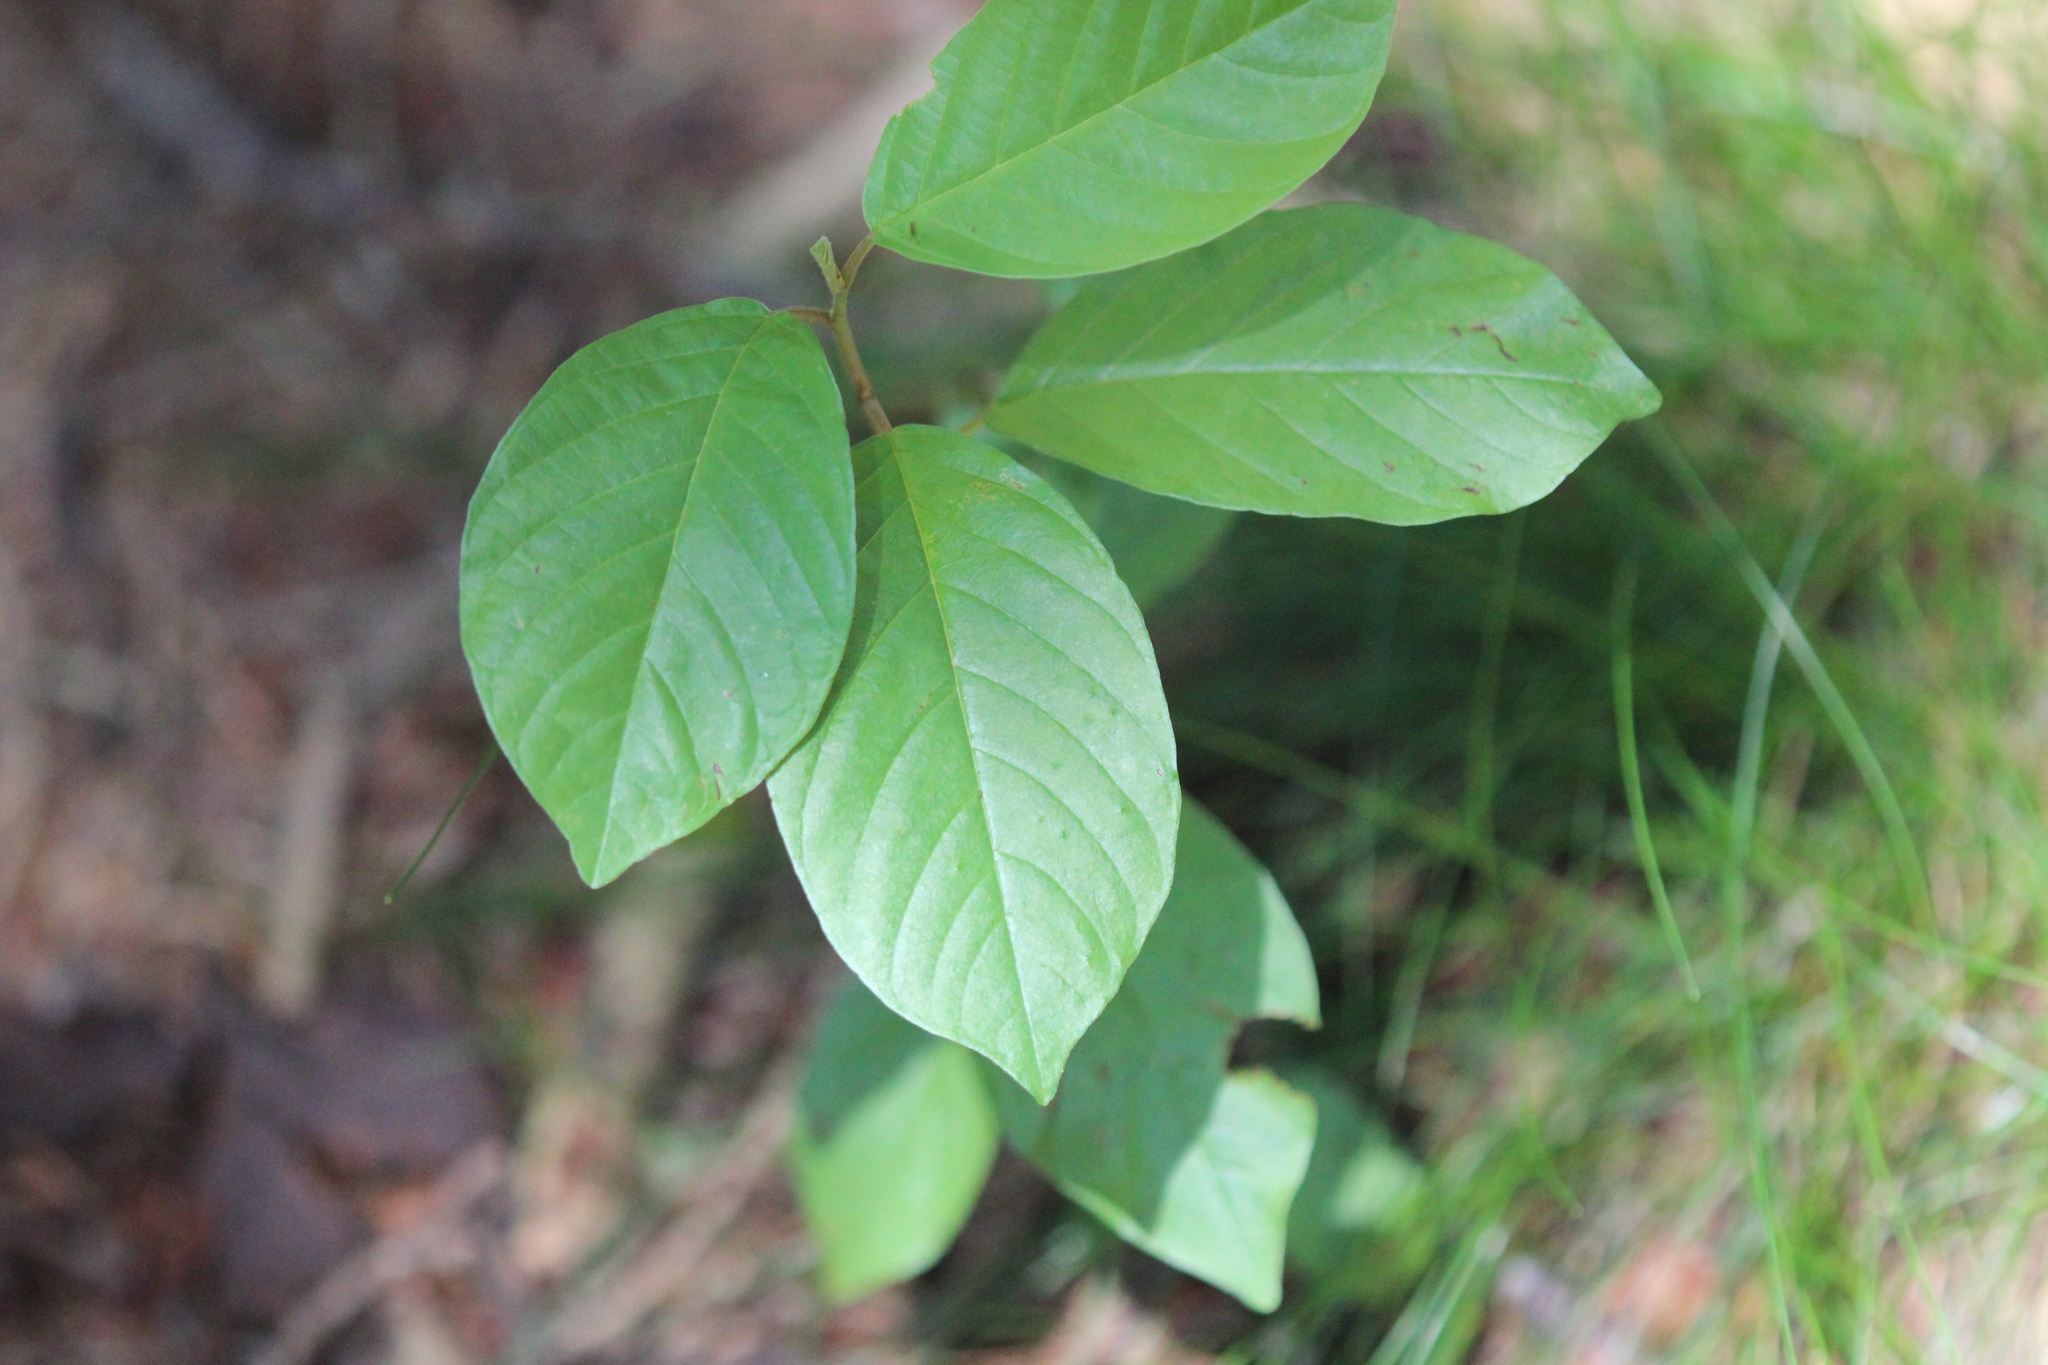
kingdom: Plantae
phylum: Tracheophyta
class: Magnoliopsida
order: Rosales
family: Rhamnaceae
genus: Frangula
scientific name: Frangula alnus
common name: Alder buckthorn
